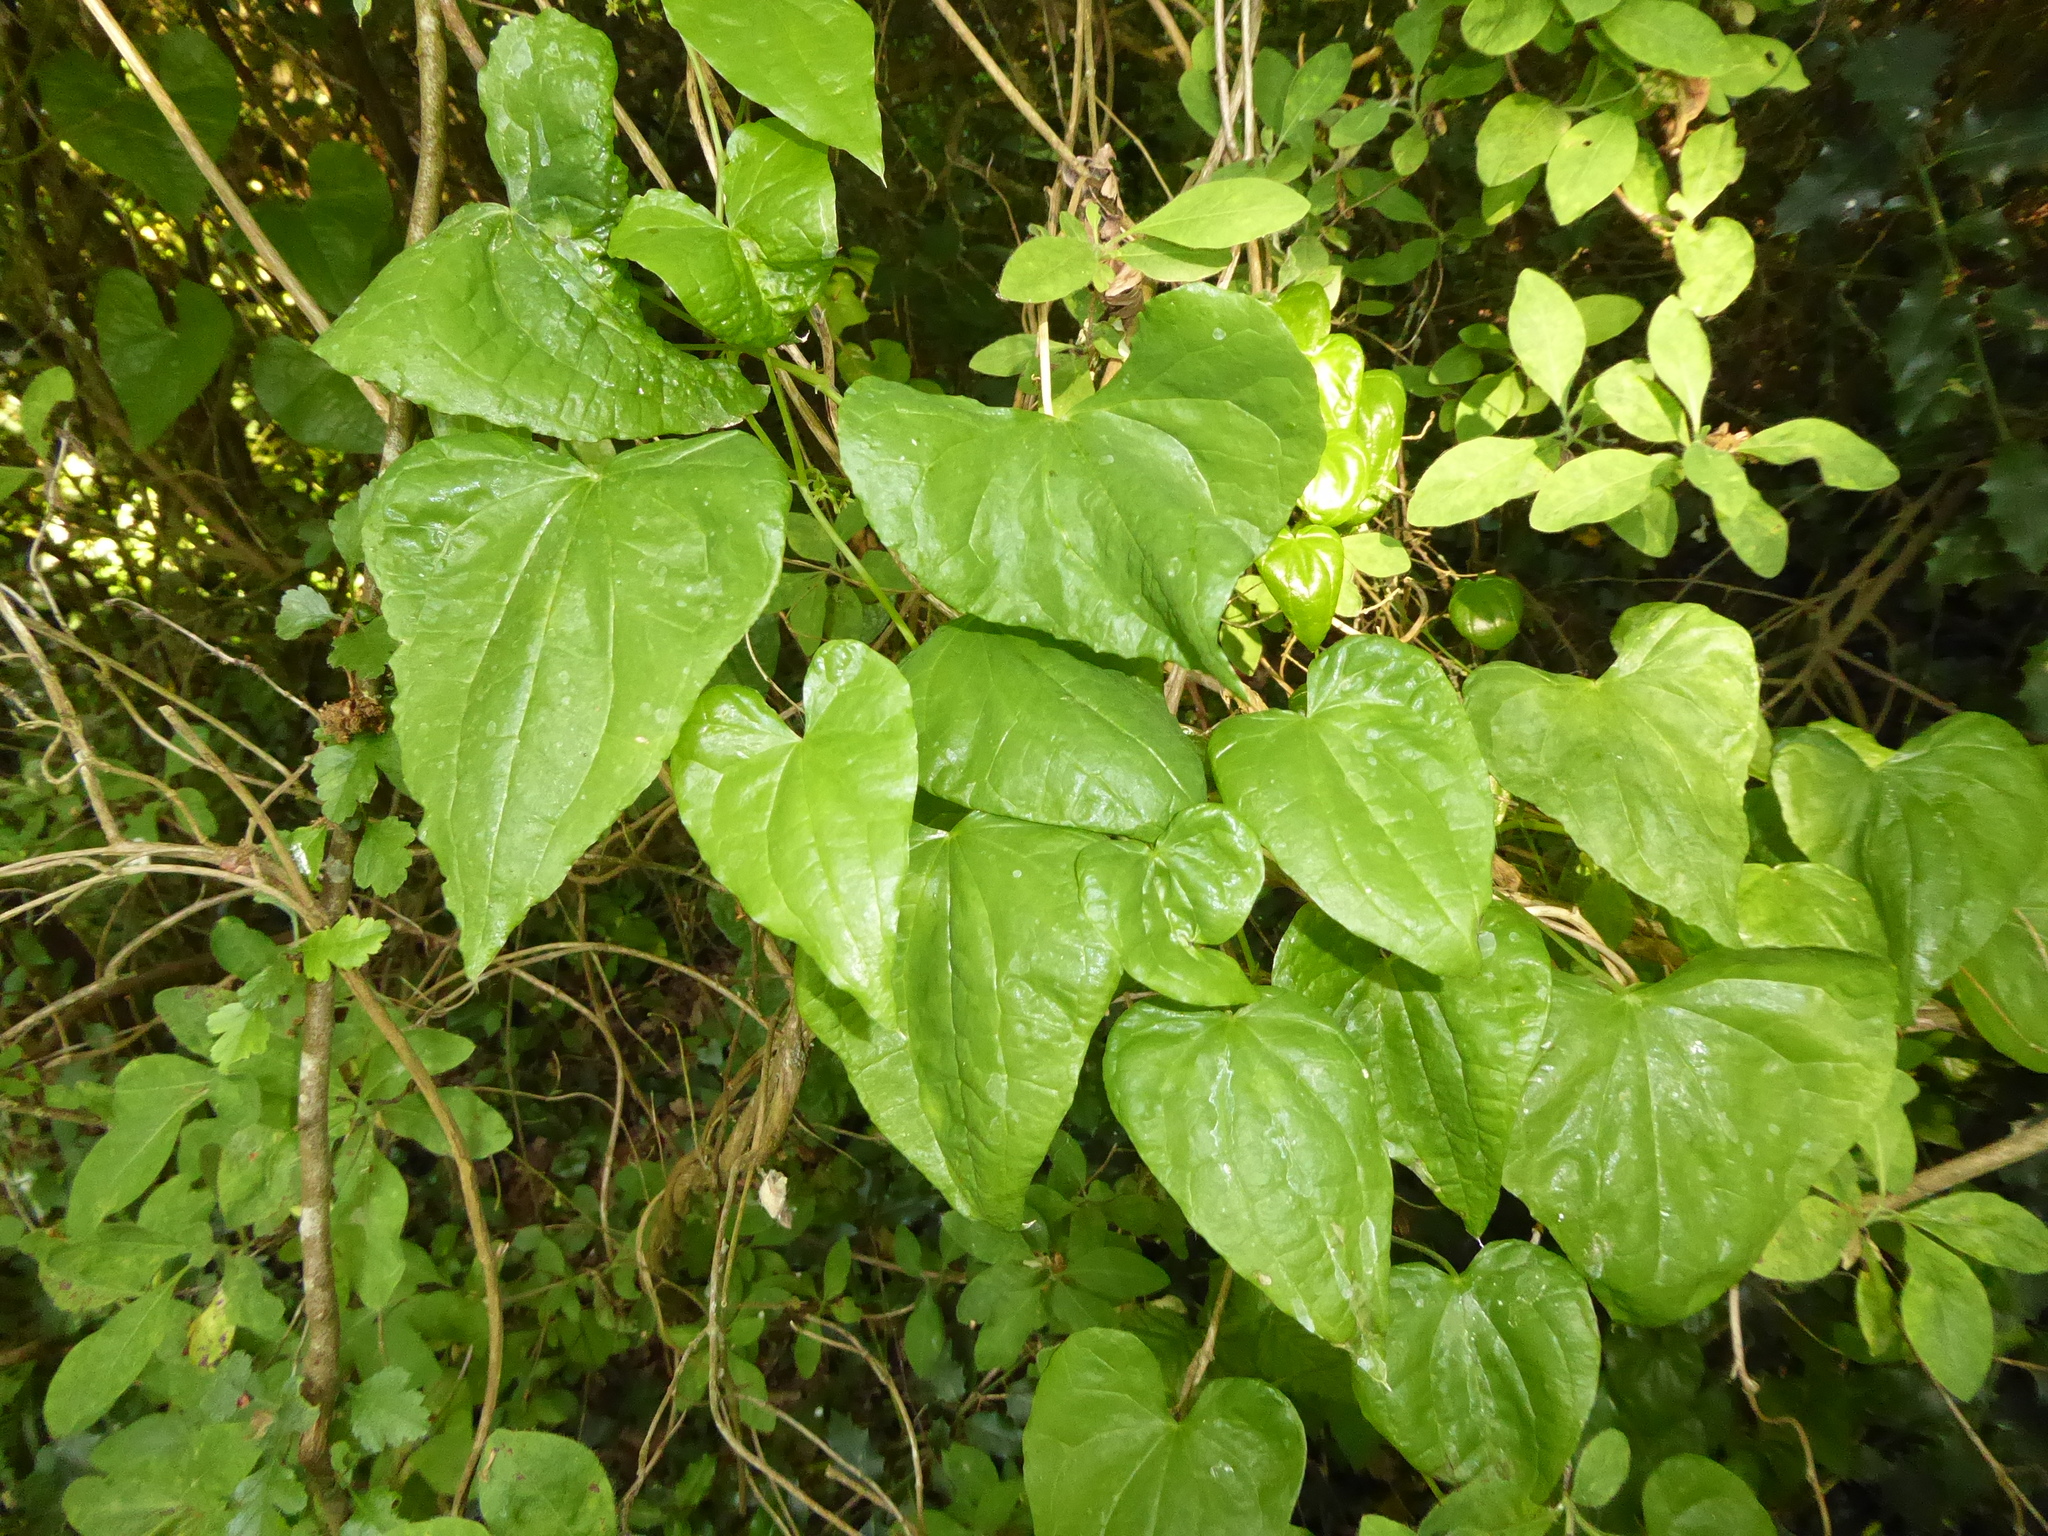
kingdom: Plantae
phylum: Tracheophyta
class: Liliopsida
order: Dioscoreales
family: Dioscoreaceae
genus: Dioscorea
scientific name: Dioscorea communis
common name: Black-bindweed
